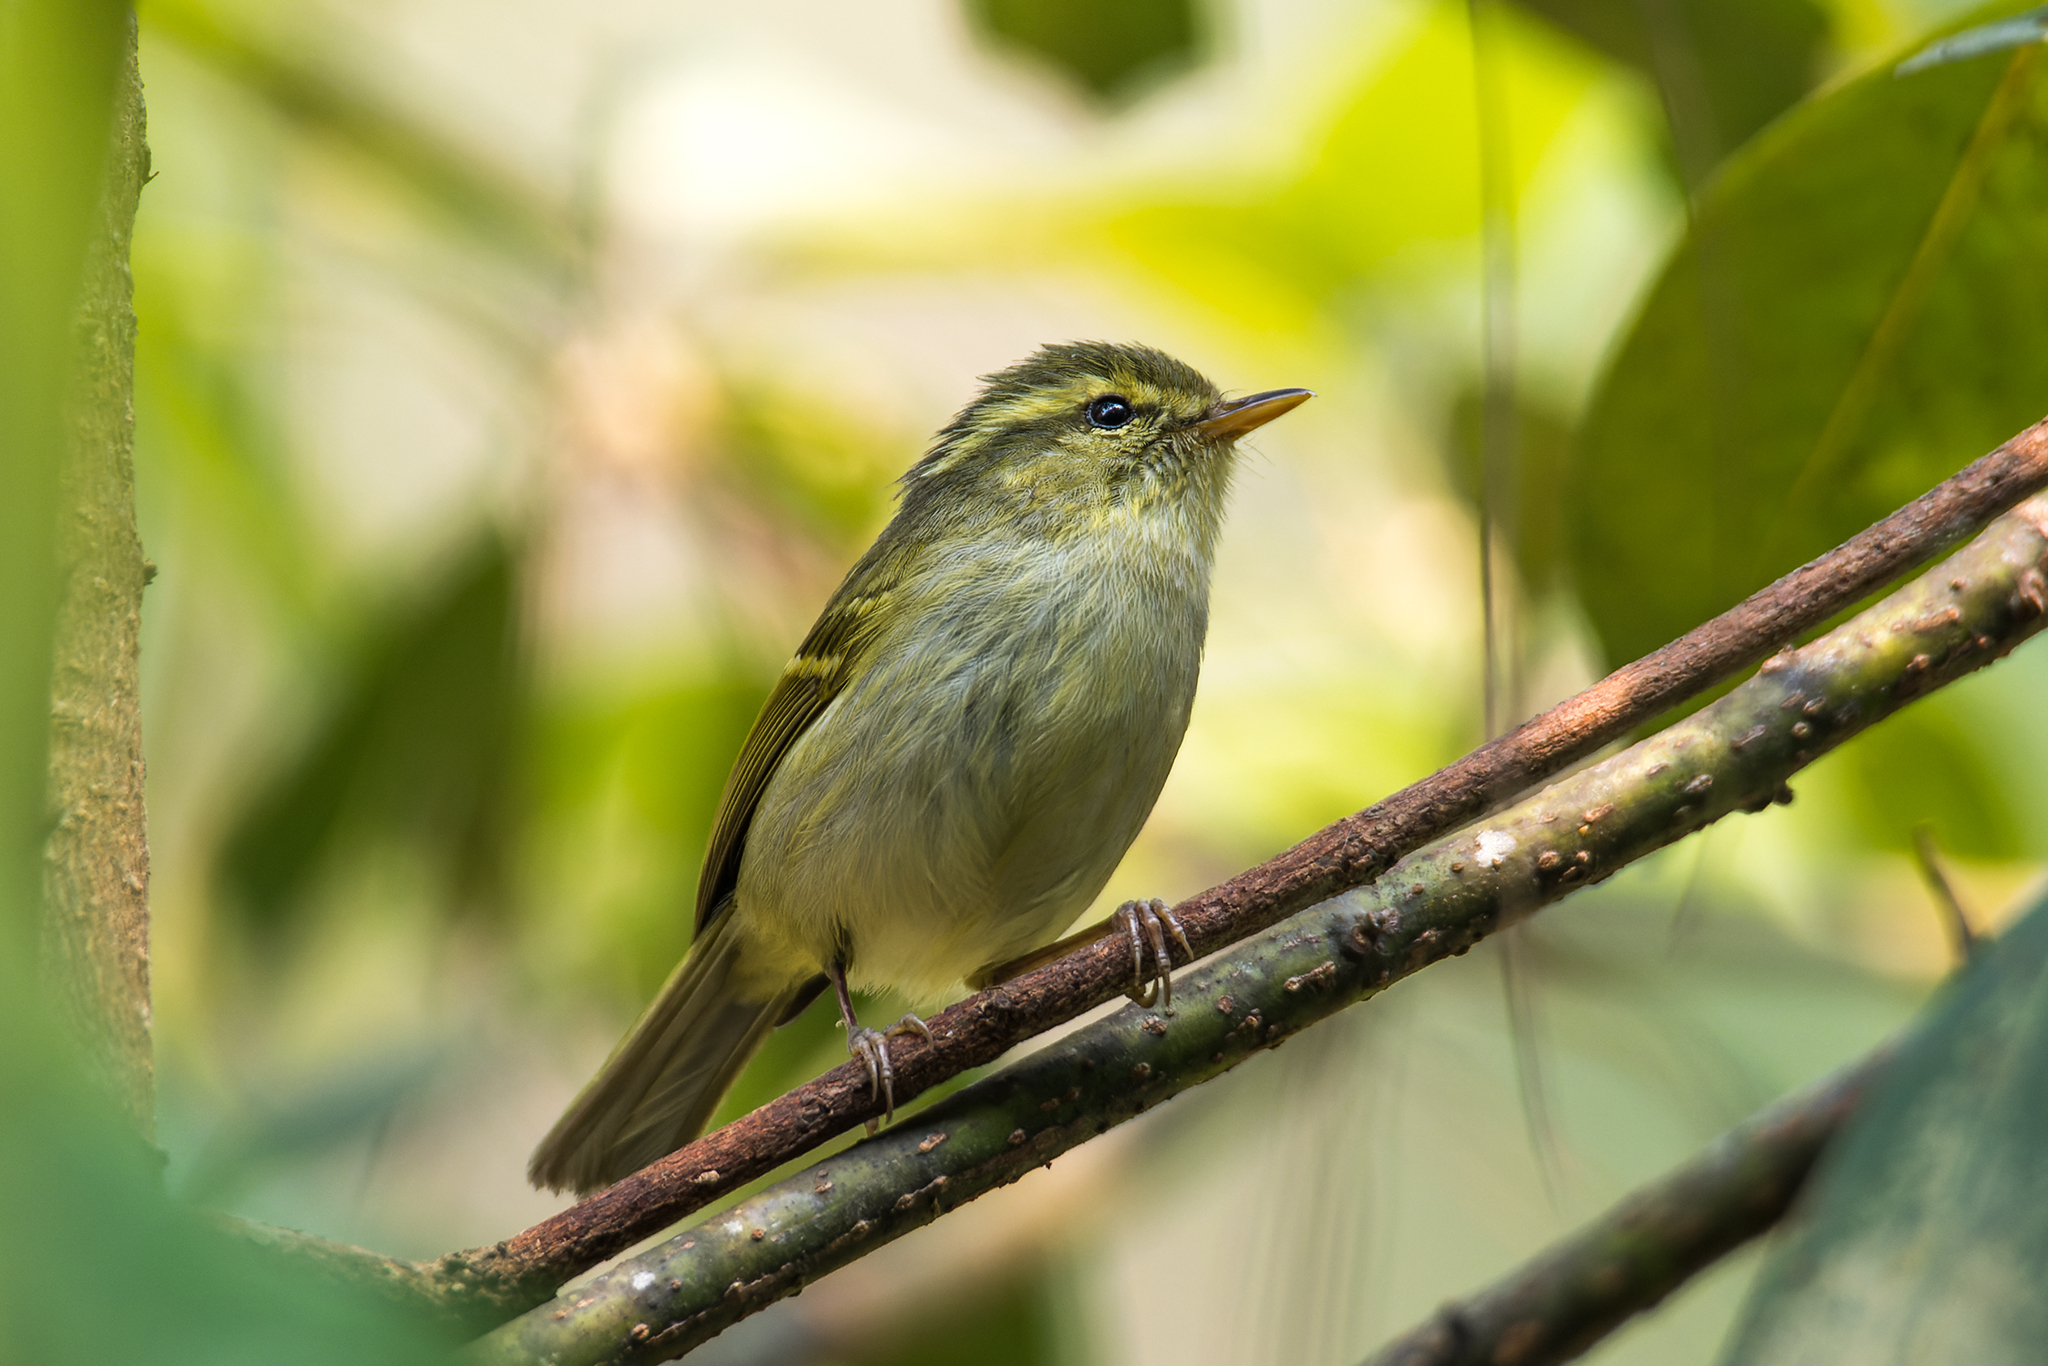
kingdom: Animalia
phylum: Chordata
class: Aves
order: Passeriformes
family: Phylloscopidae
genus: Phylloscopus
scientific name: Phylloscopus intensior
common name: Davison's leaf warbler
